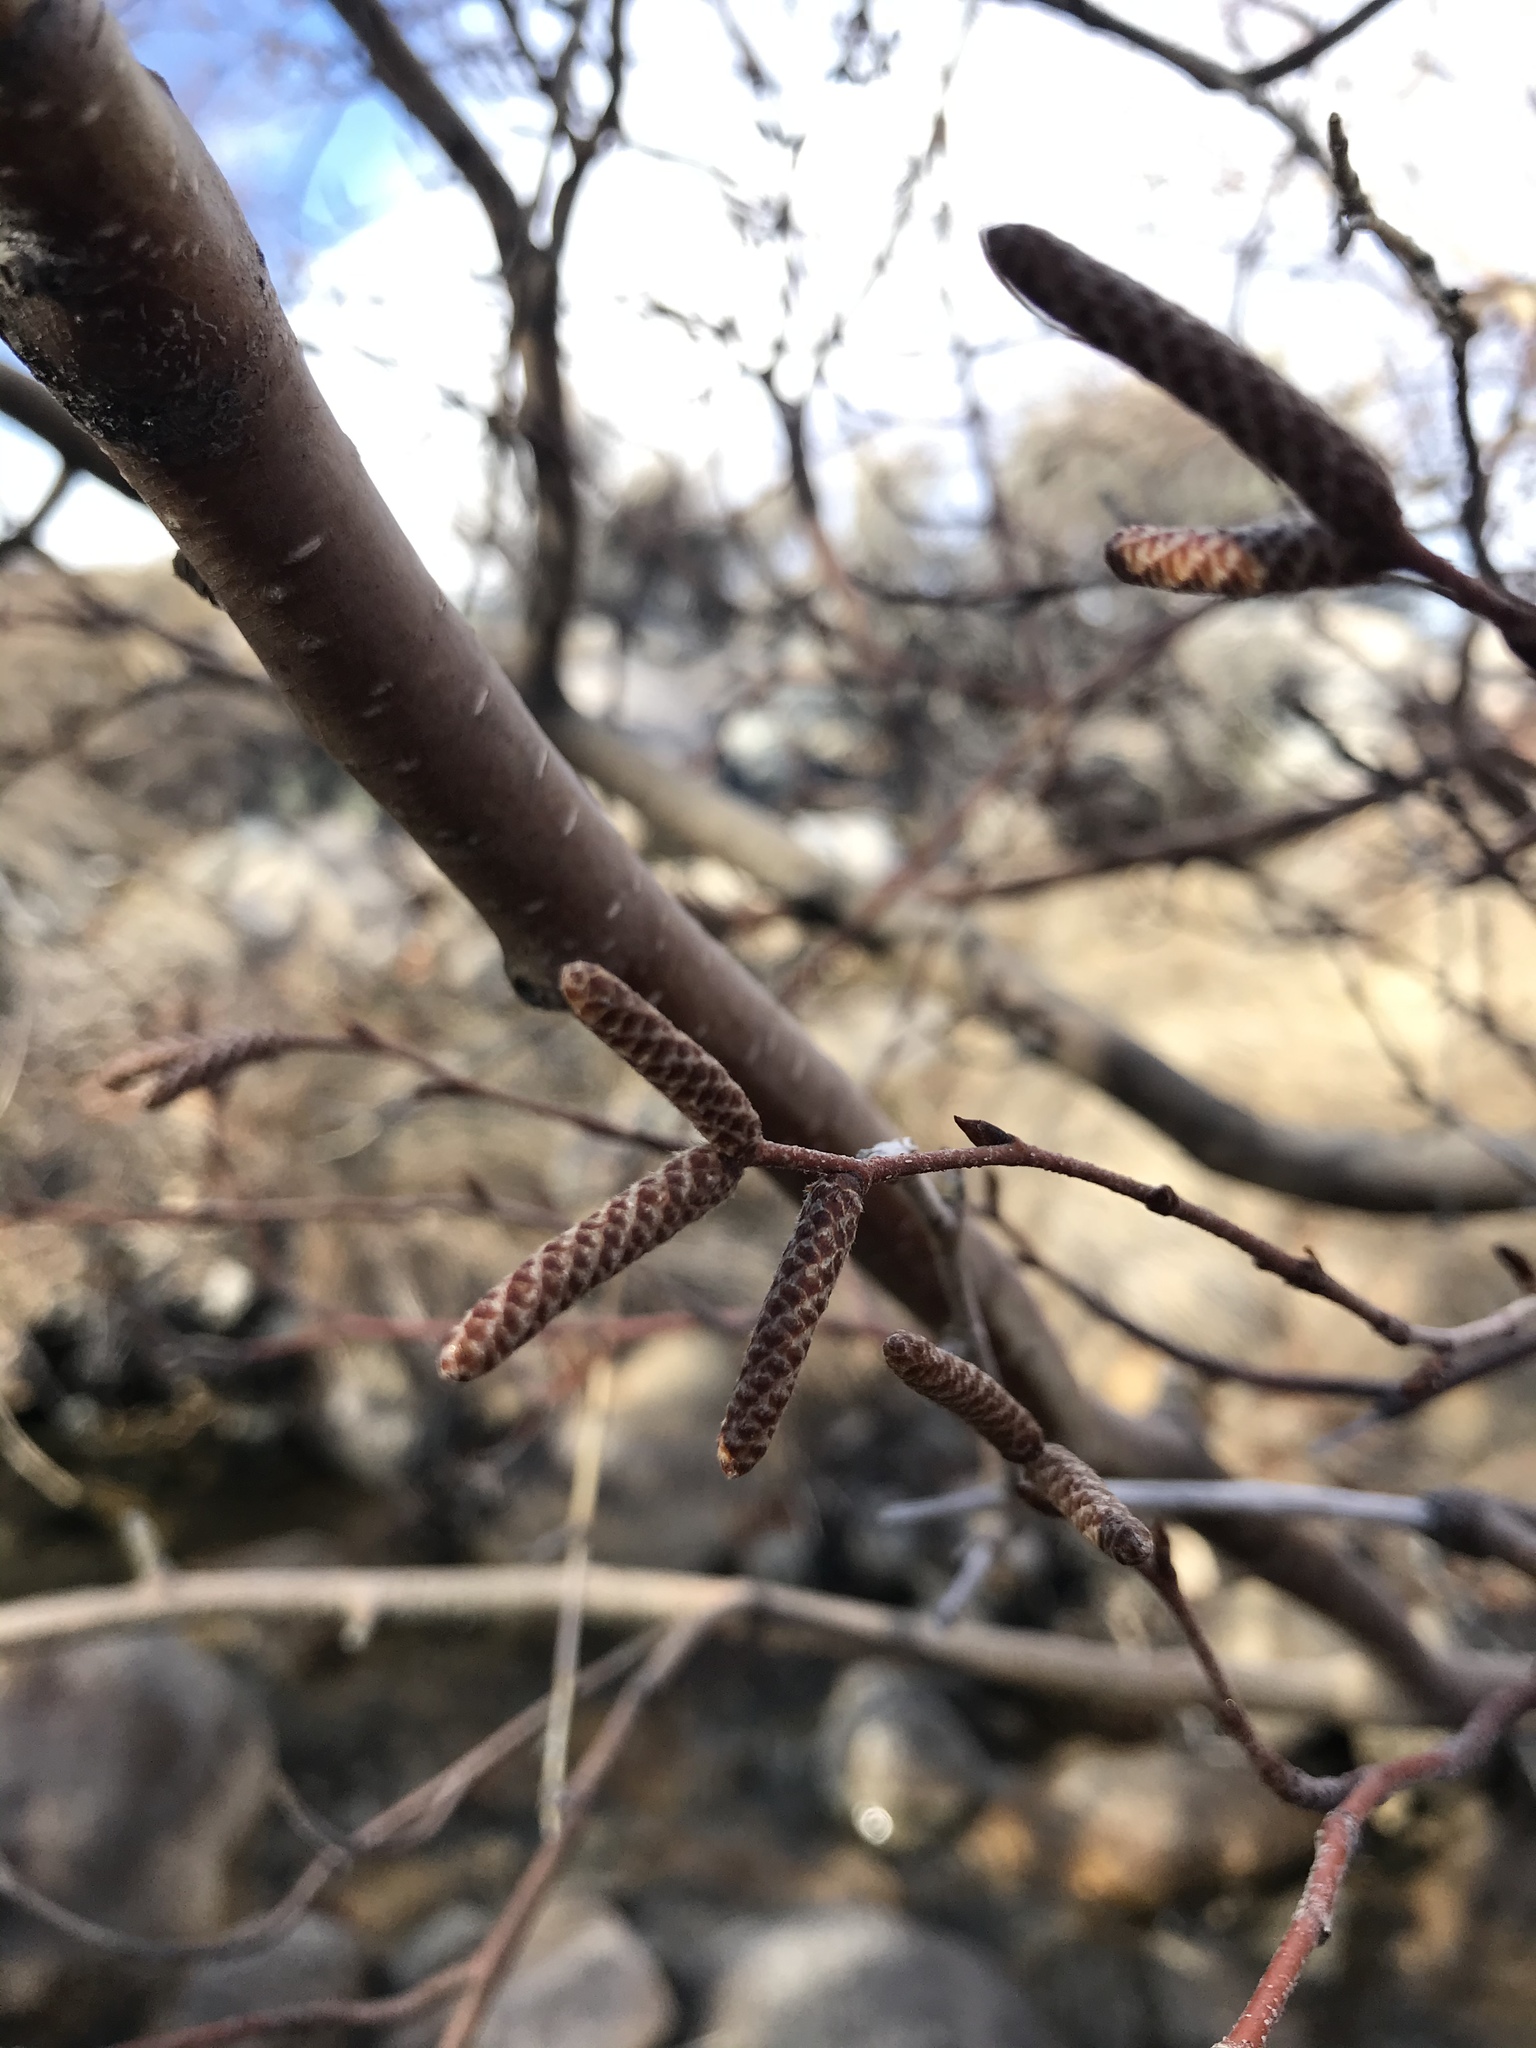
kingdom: Plantae
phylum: Tracheophyta
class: Magnoliopsida
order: Fagales
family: Betulaceae
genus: Betula
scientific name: Betula occidentalis
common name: River birch
